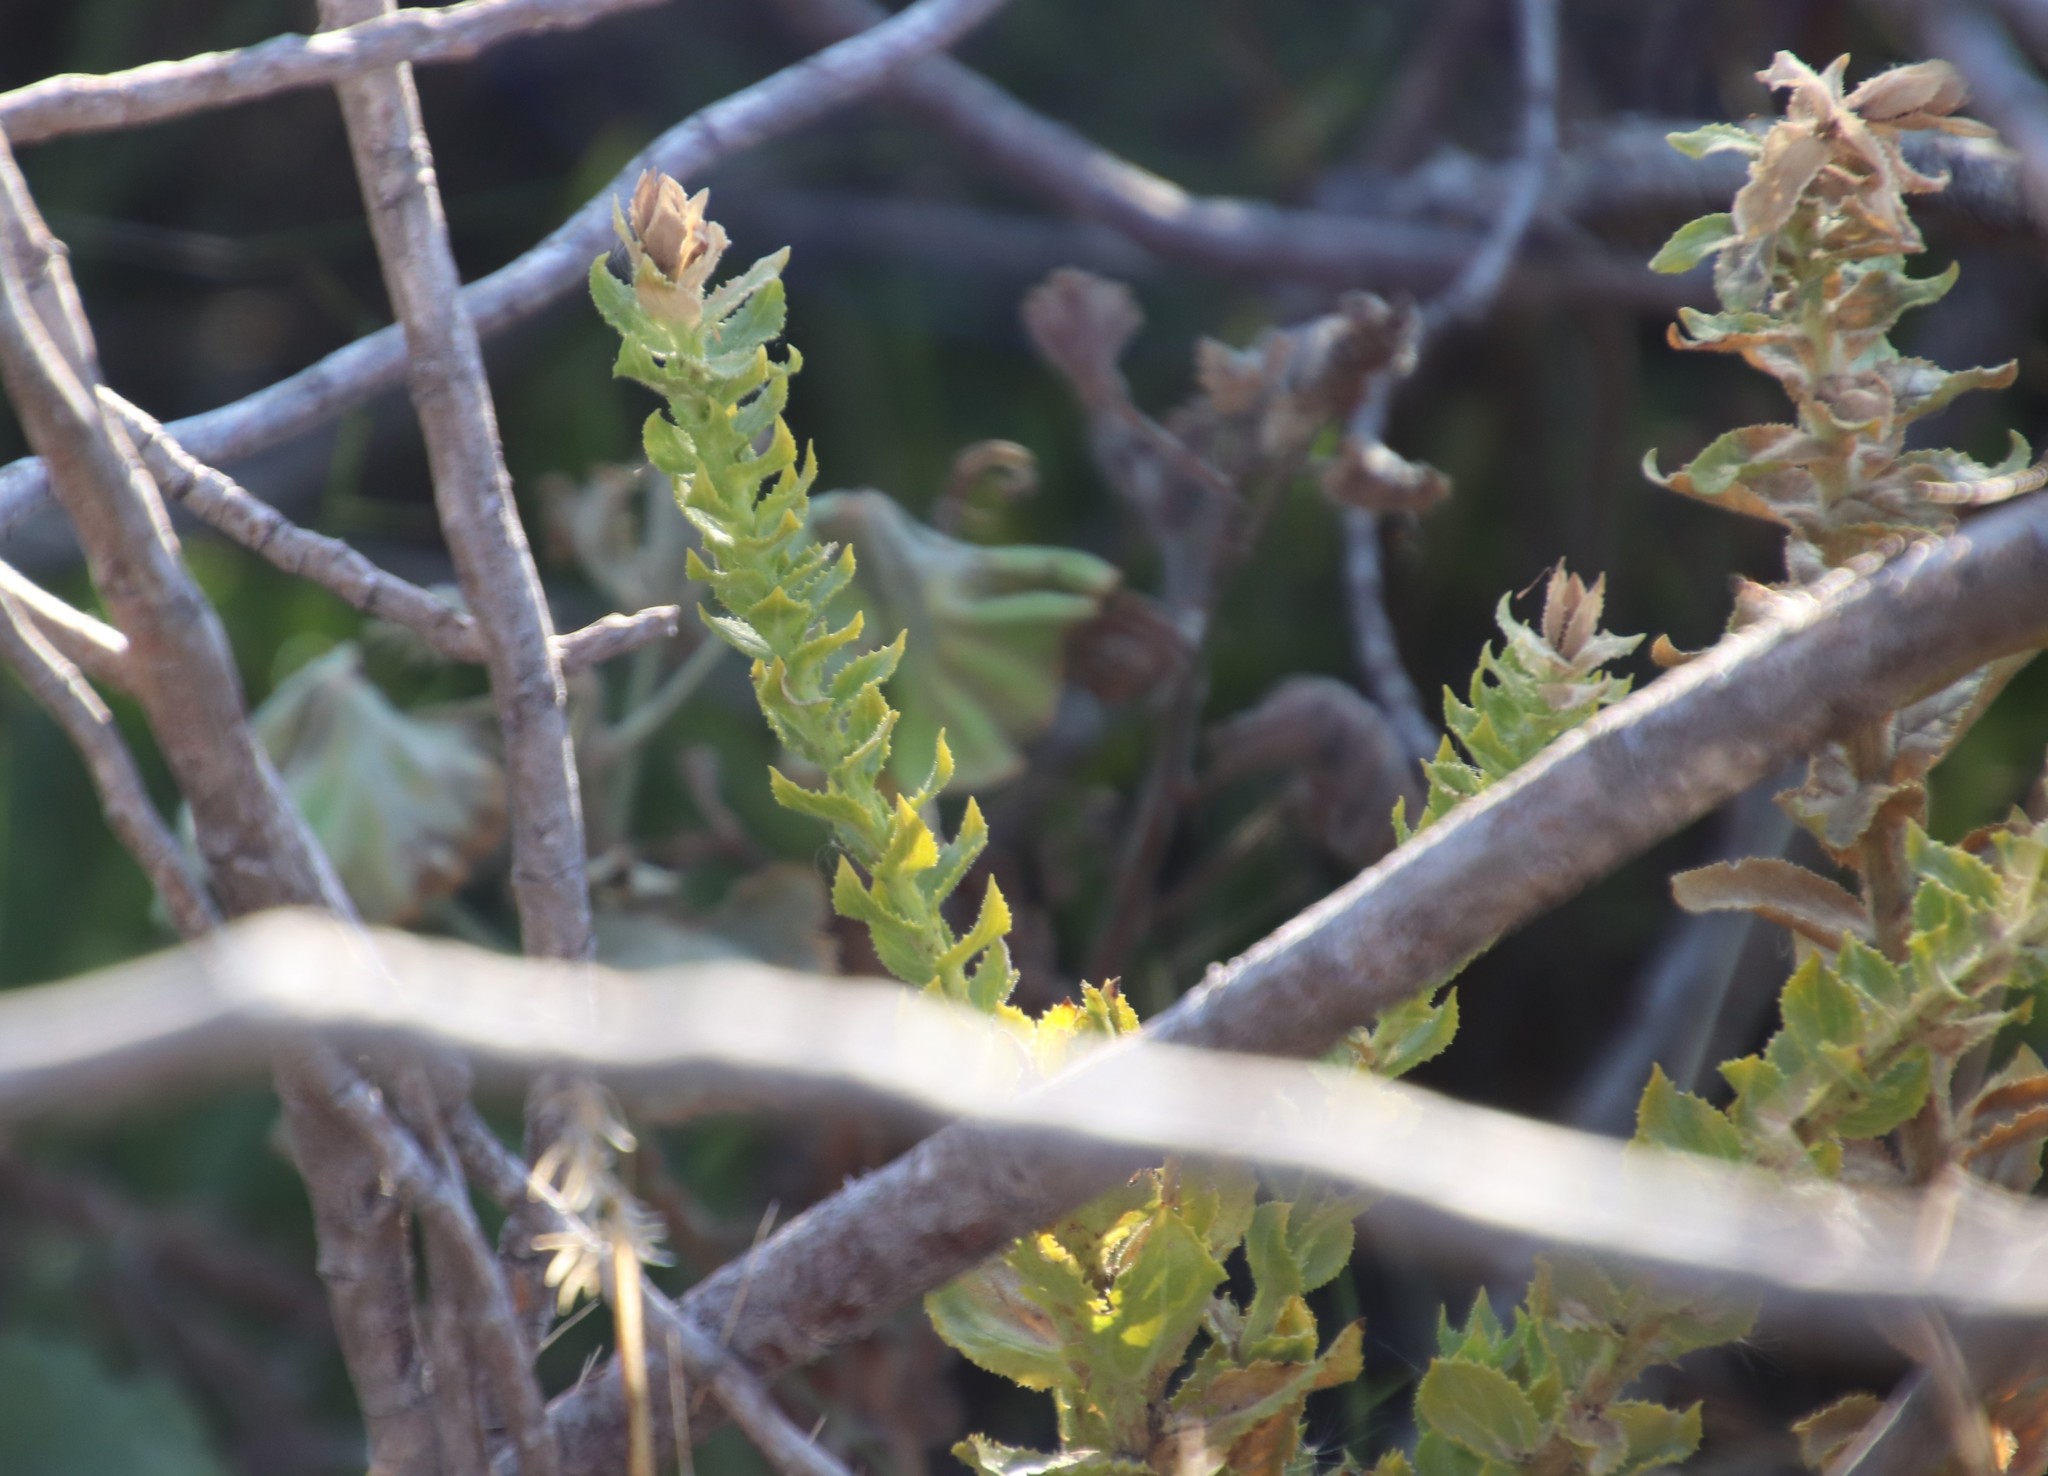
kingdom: Plantae
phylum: Tracheophyta
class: Magnoliopsida
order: Lamiales
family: Scrophulariaceae
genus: Oftia
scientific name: Oftia africana
